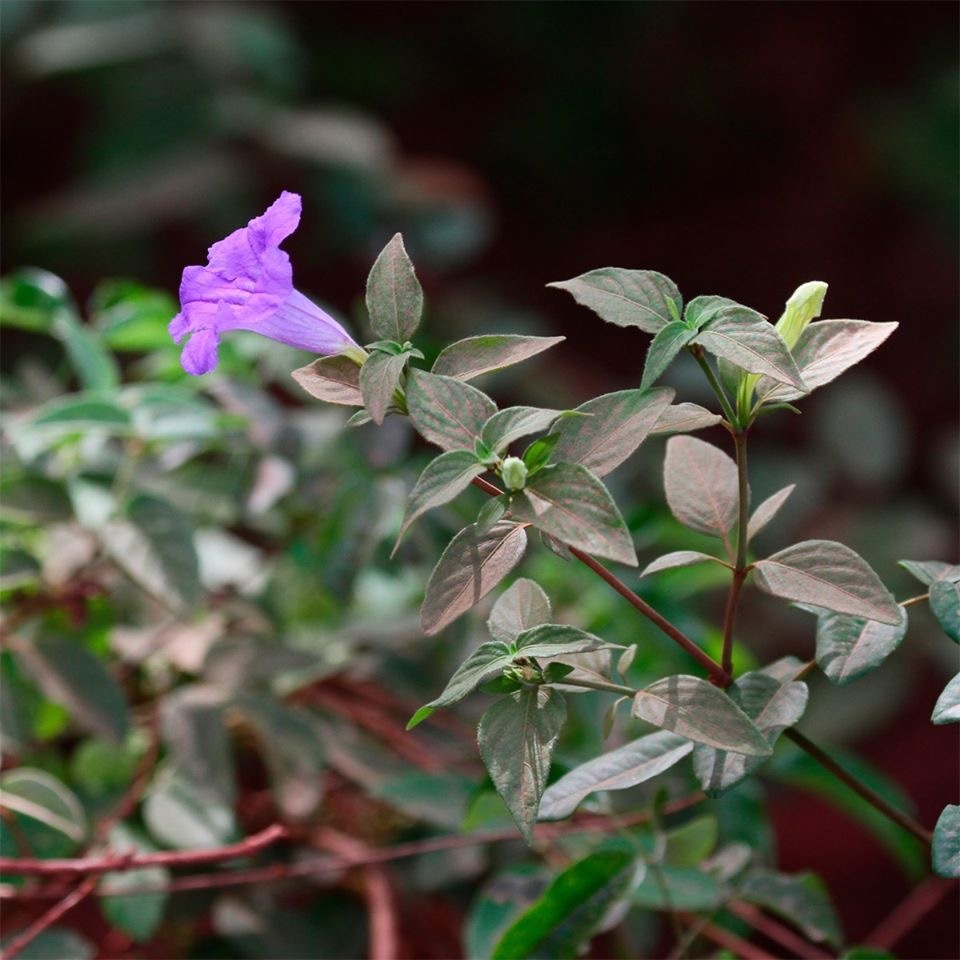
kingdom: Plantae
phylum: Tracheophyta
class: Magnoliopsida
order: Lamiales
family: Acanthaceae
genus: Ruellia
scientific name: Ruellia bahiensis
